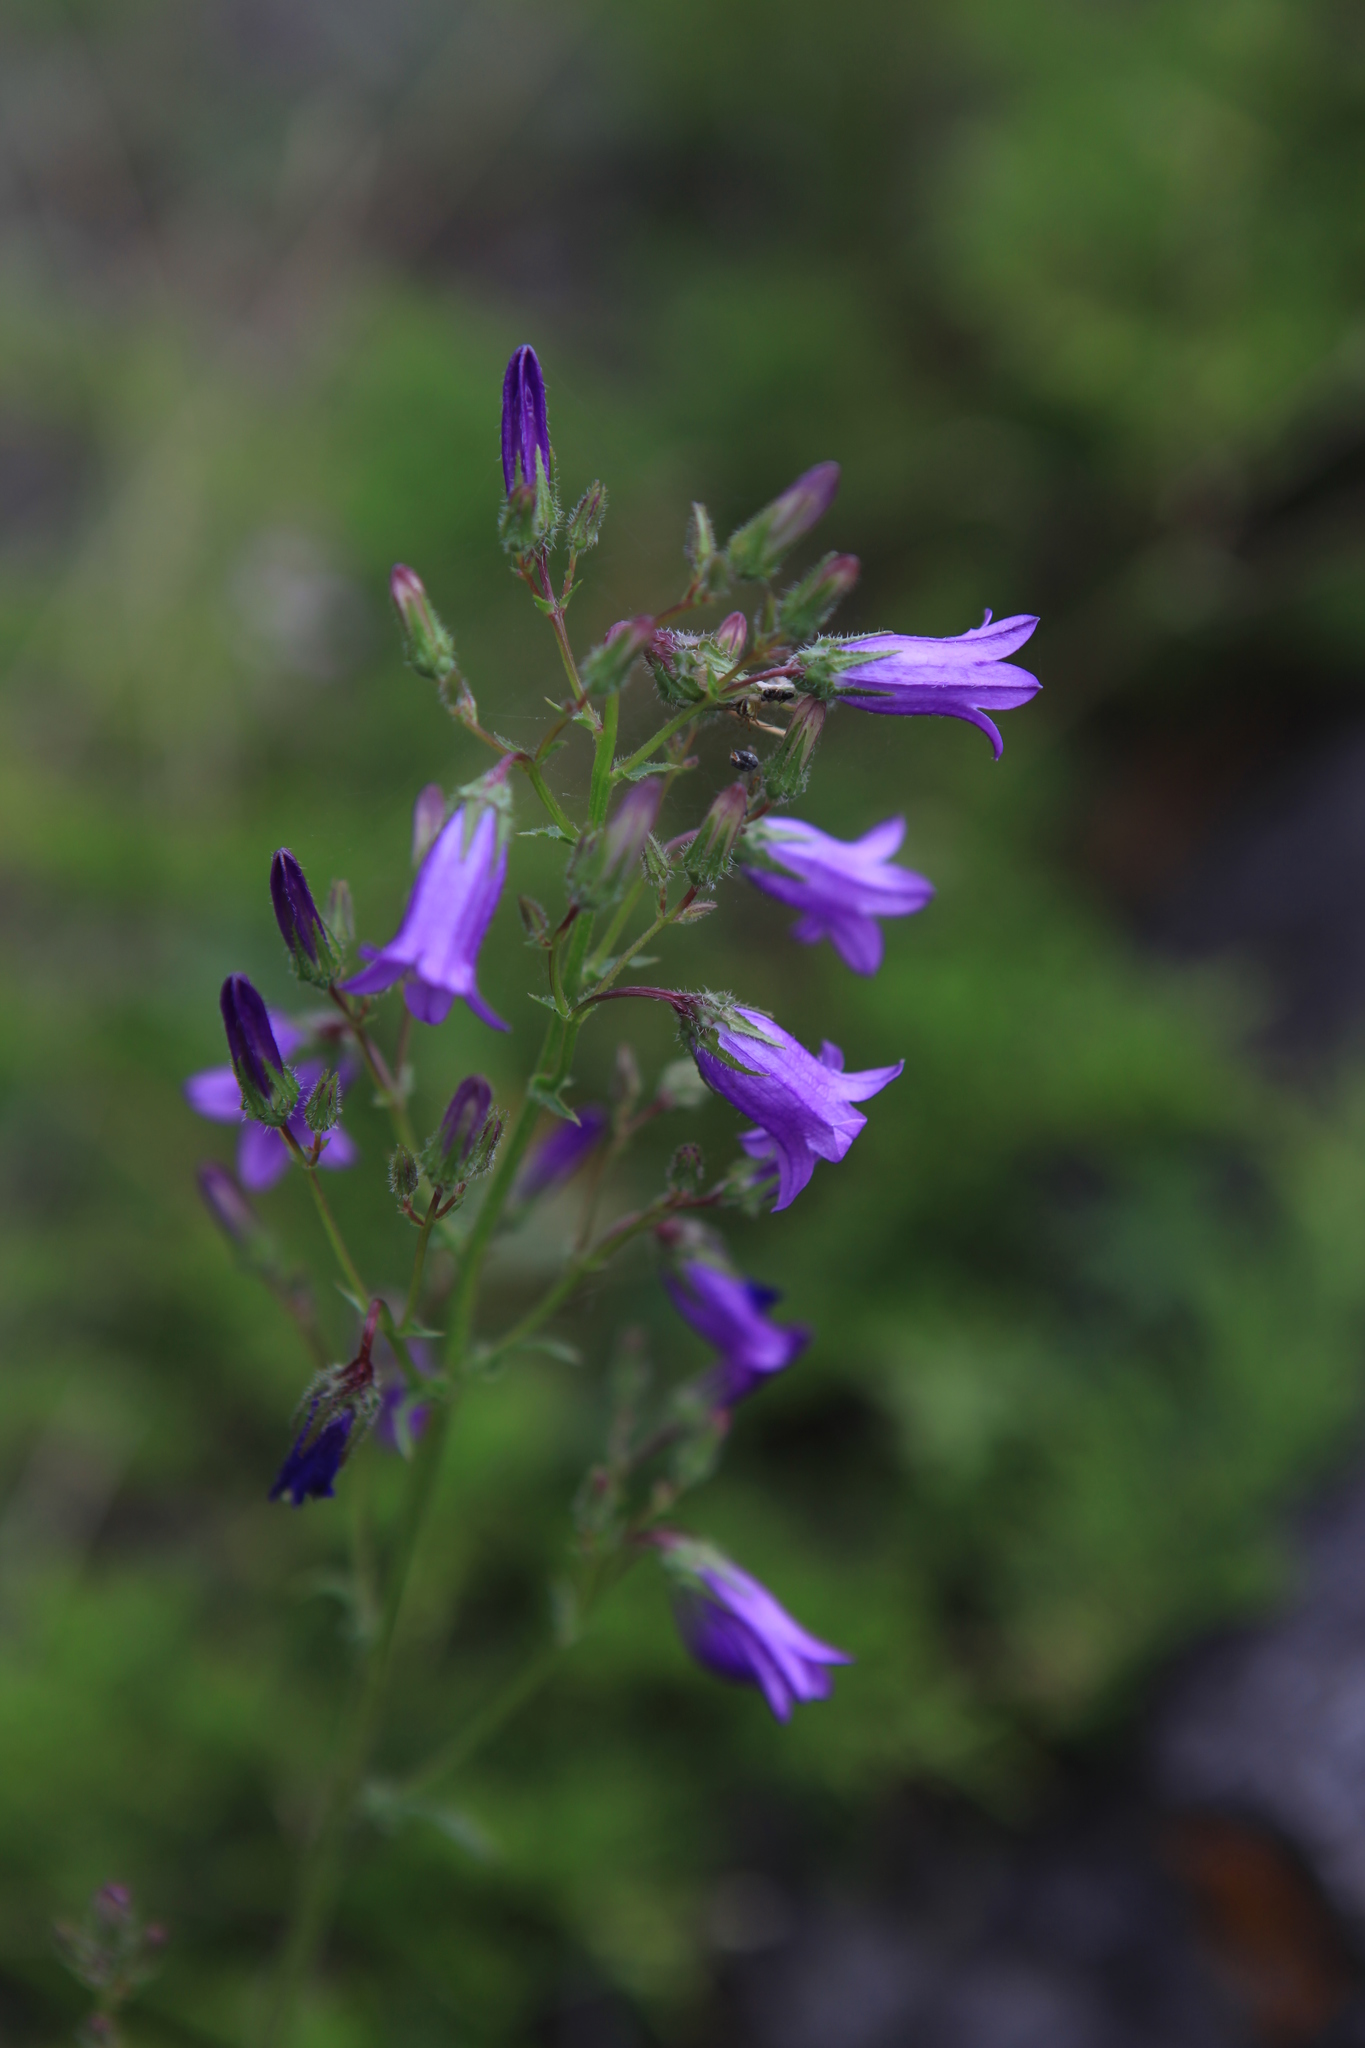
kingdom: Plantae
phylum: Tracheophyta
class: Magnoliopsida
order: Asterales
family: Campanulaceae
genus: Campanula
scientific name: Campanula sibirica
